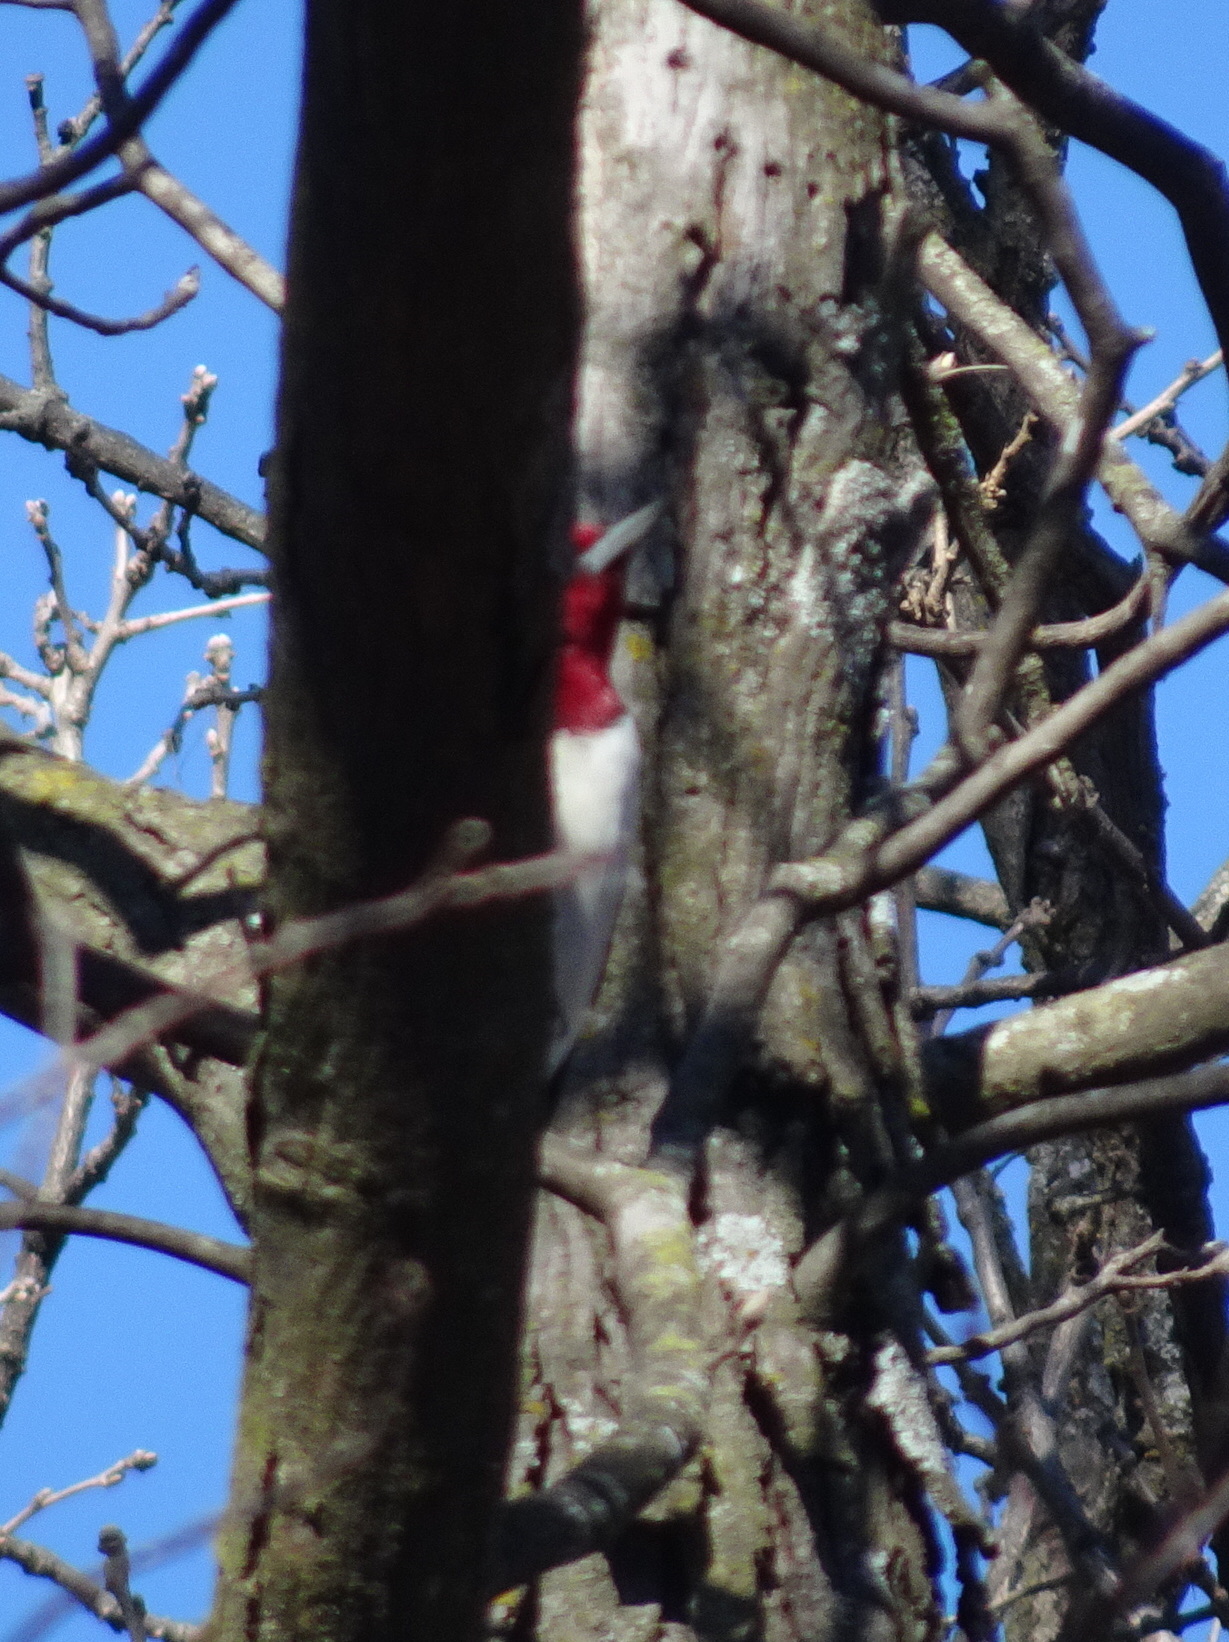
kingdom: Animalia
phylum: Chordata
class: Aves
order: Piciformes
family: Picidae
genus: Melanerpes
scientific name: Melanerpes erythrocephalus
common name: Red-headed woodpecker
